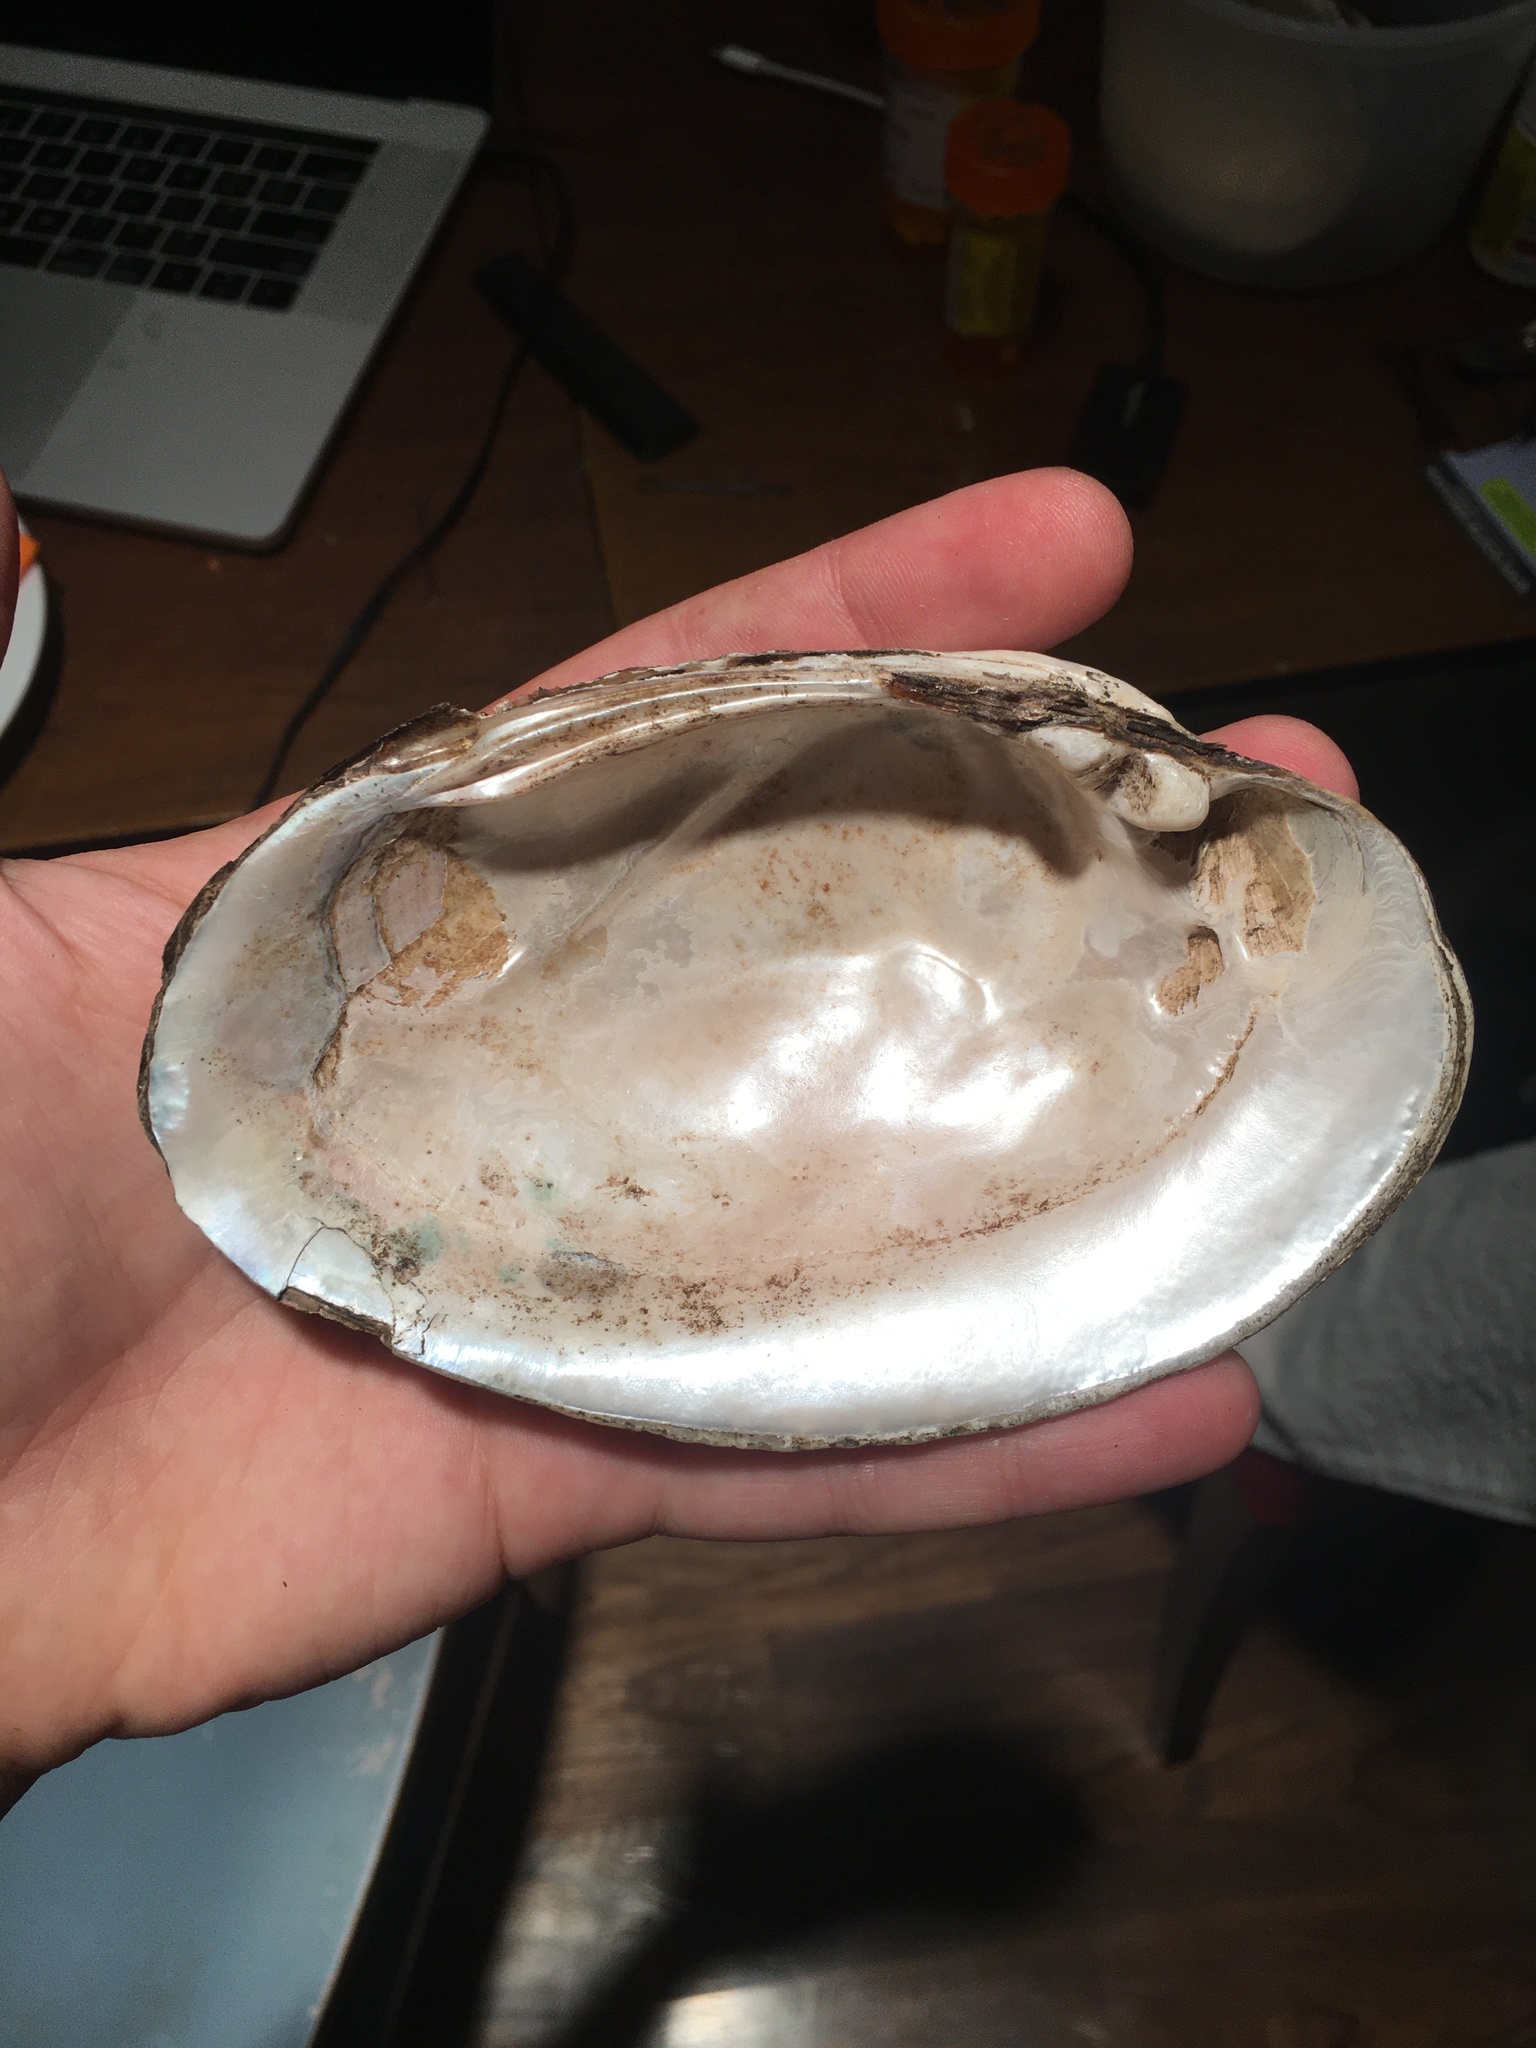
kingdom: Animalia
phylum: Mollusca
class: Bivalvia
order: Unionida
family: Unionidae
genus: Ortmanniana
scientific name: Ortmanniana ligamentina
